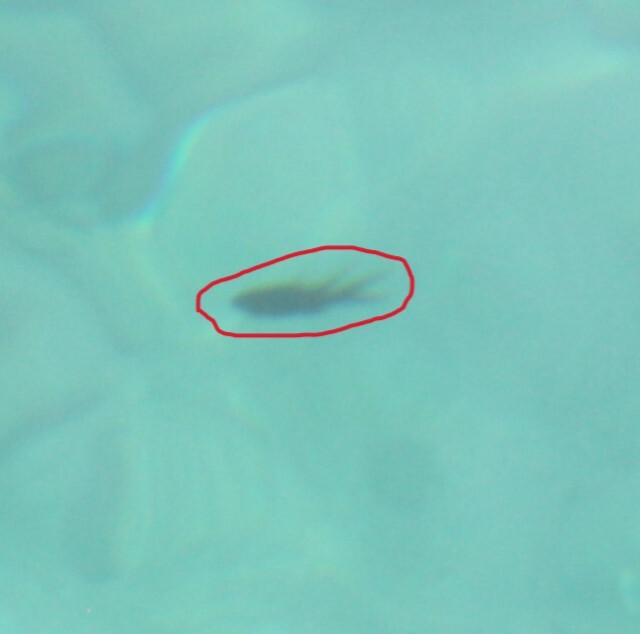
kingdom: Animalia
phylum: Chordata
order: Perciformes
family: Pomacentridae
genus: Chromis
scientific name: Chromis chromis
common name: Damselfish
